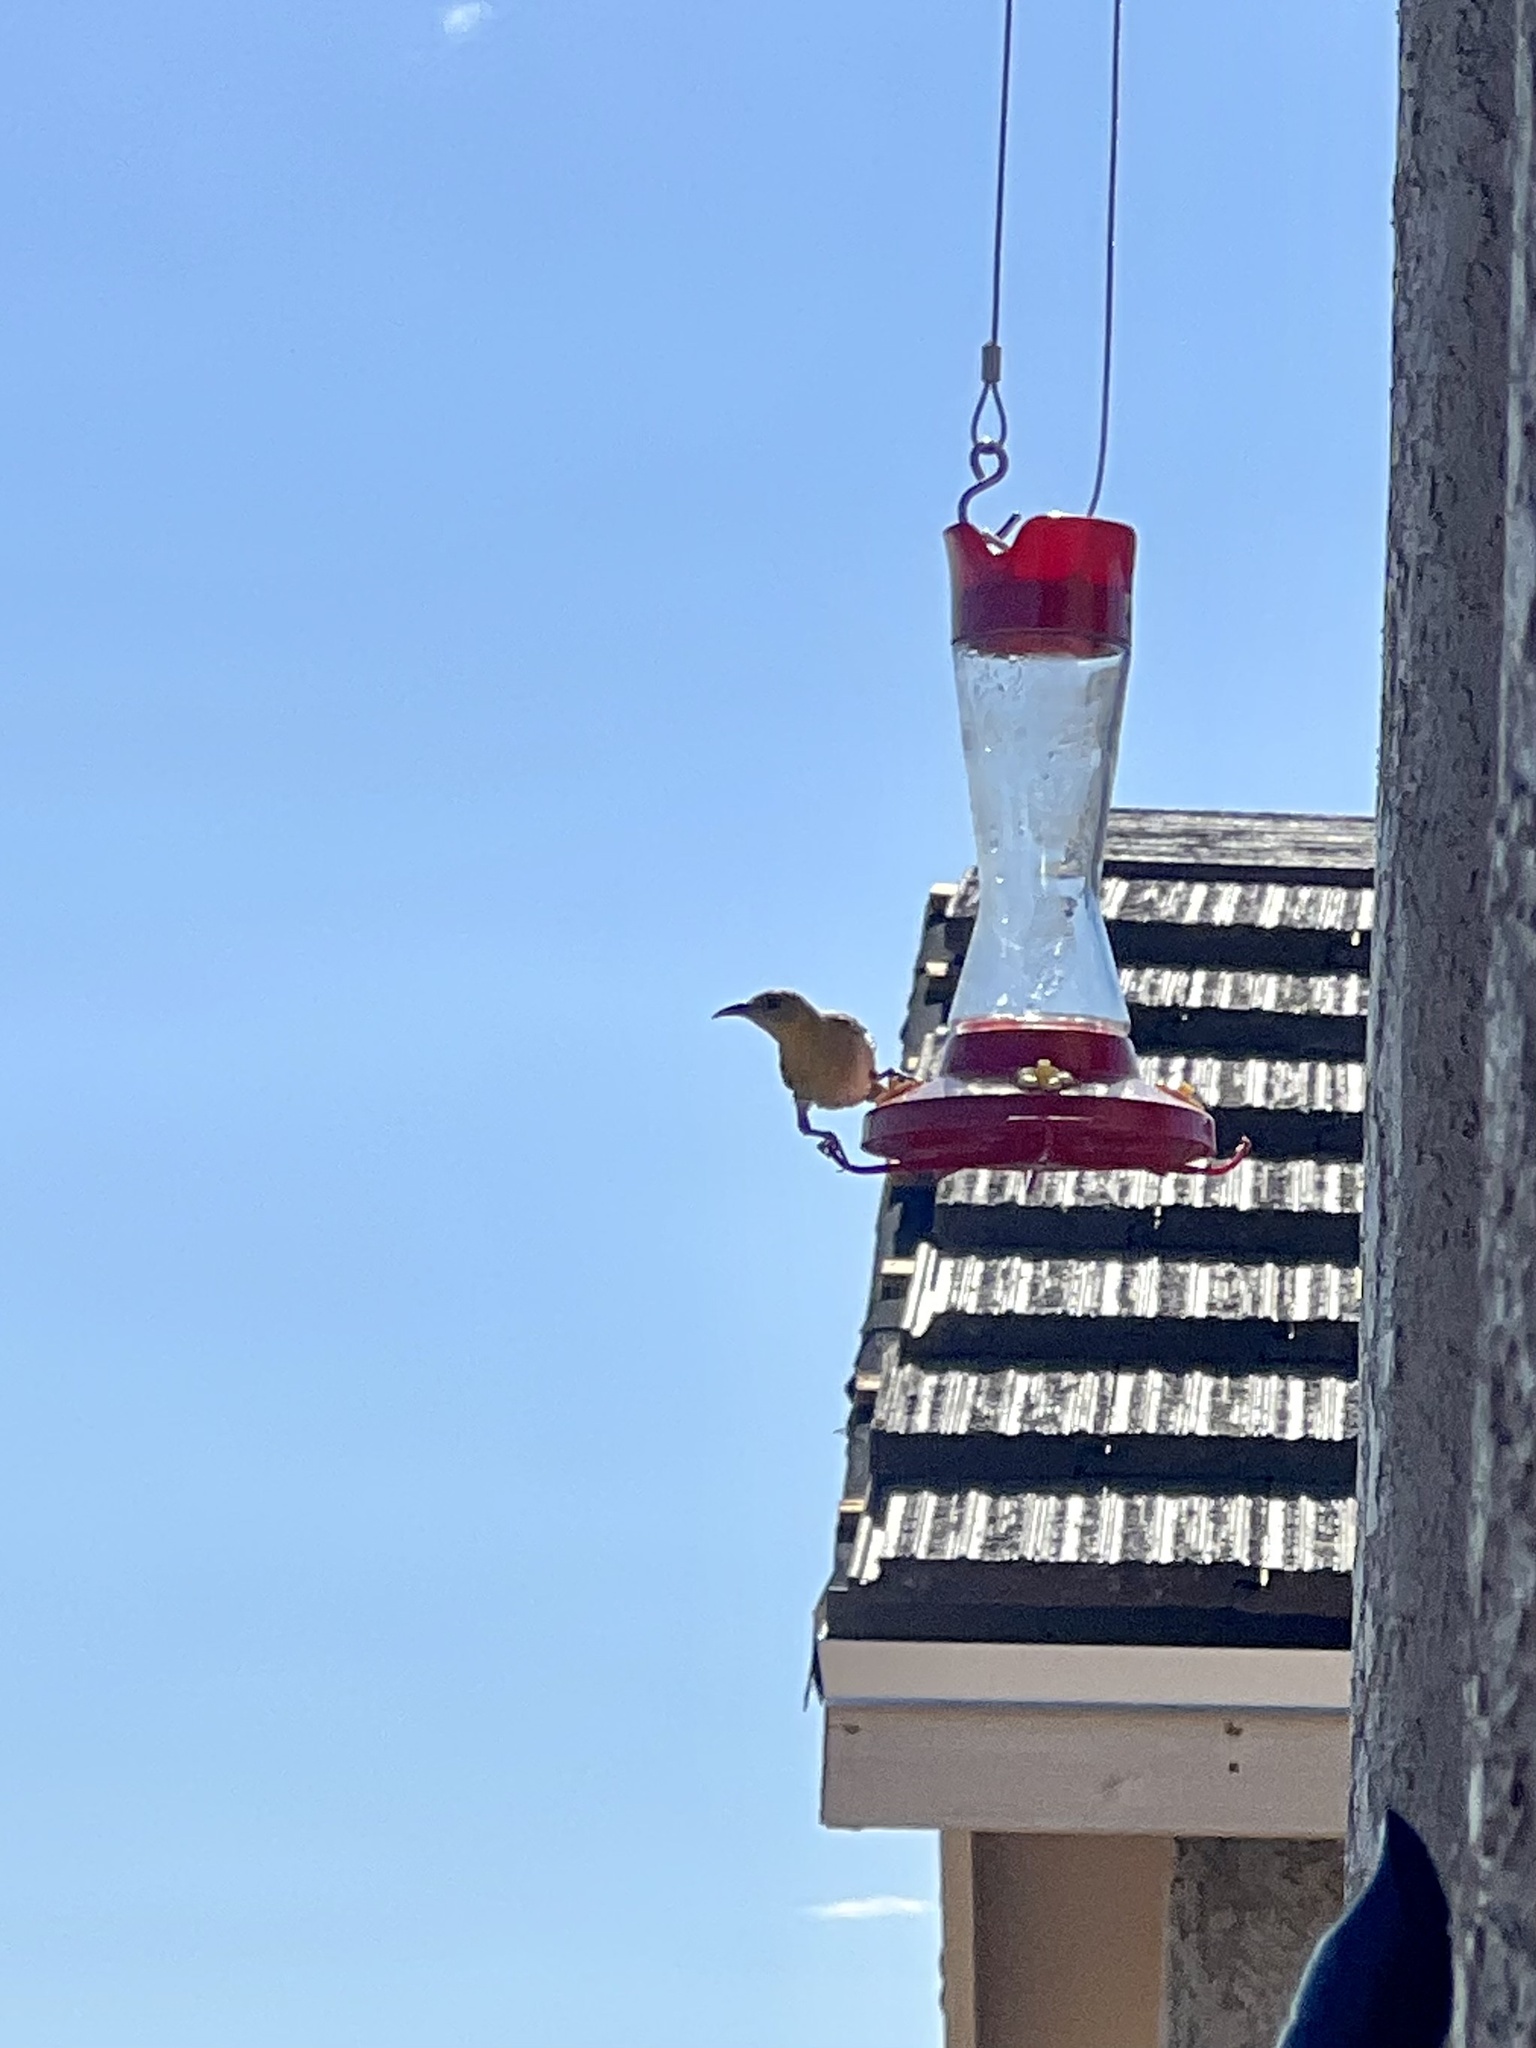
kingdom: Animalia
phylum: Chordata
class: Aves
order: Passeriformes
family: Icteridae
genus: Icterus
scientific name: Icterus cucullatus
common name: Hooded oriole
